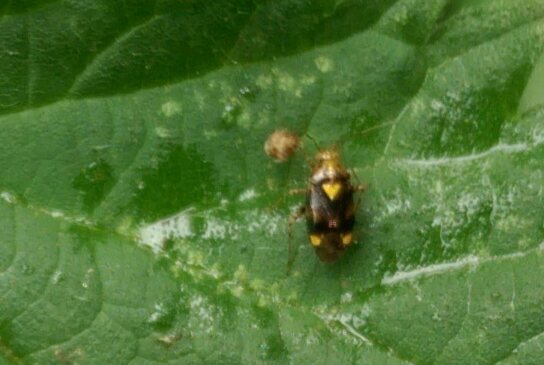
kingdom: Animalia
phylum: Arthropoda
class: Insecta
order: Hemiptera
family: Miridae
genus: Liocoris
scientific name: Liocoris tripustulatus
